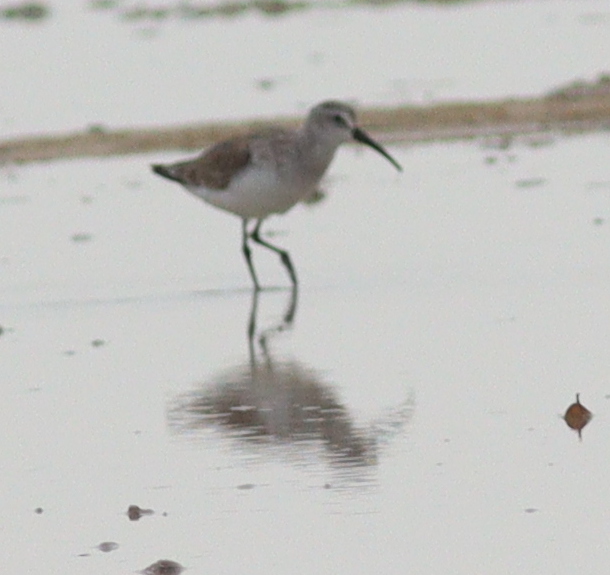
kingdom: Animalia
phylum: Chordata
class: Aves
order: Charadriiformes
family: Scolopacidae
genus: Calidris
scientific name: Calidris ferruginea
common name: Curlew sandpiper
